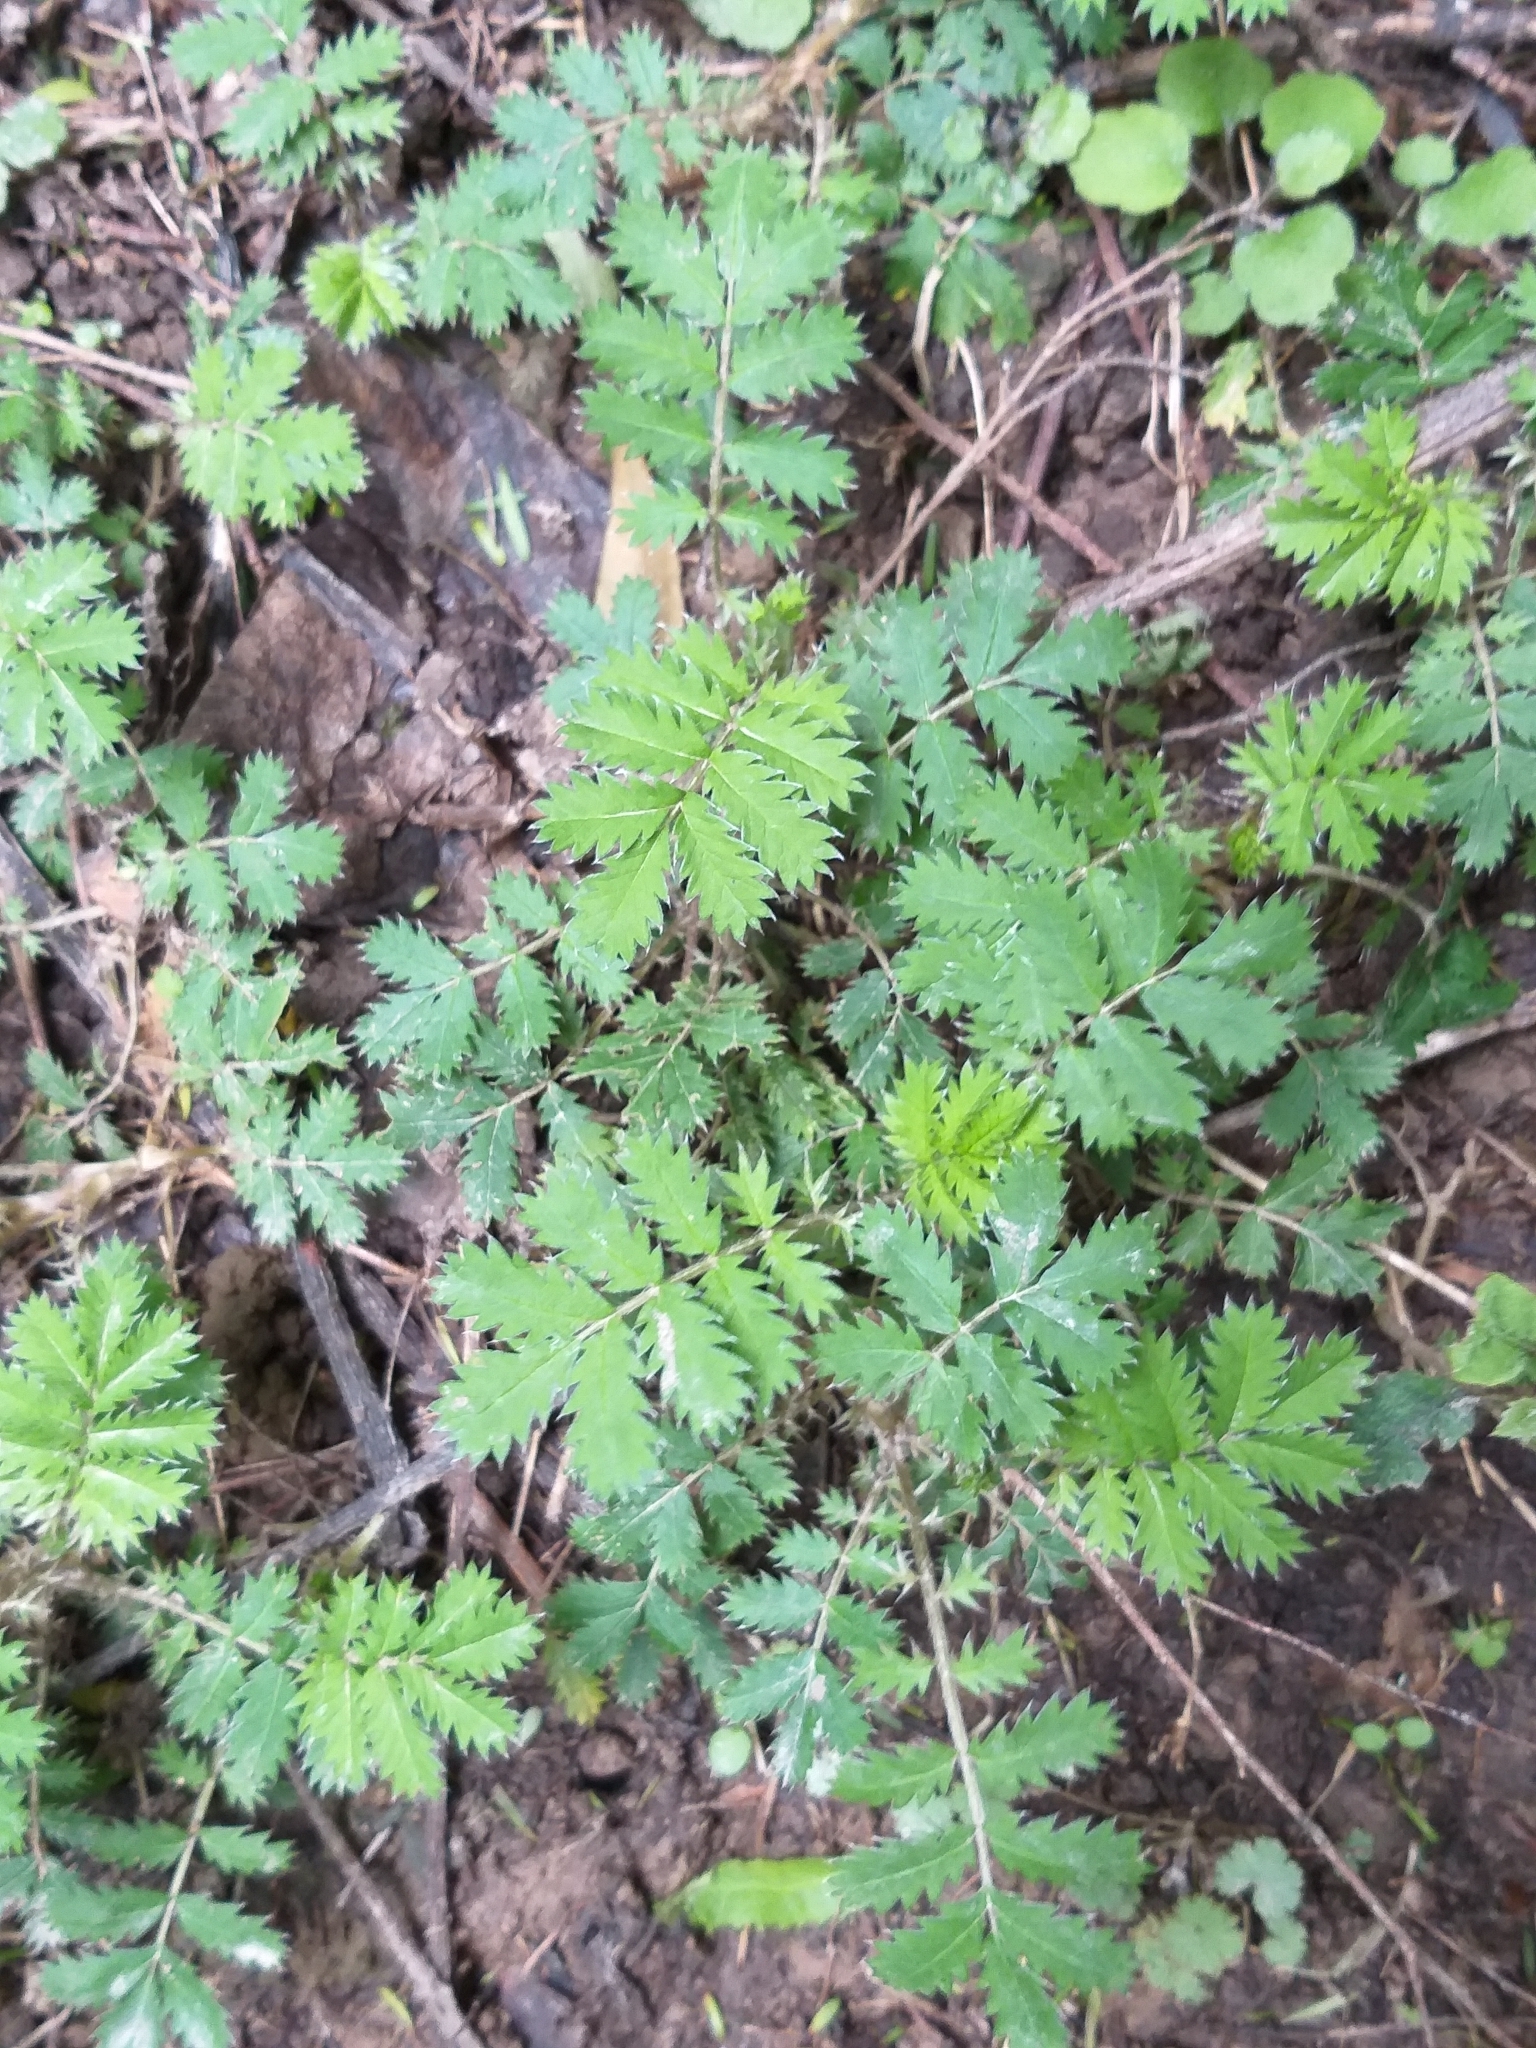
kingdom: Plantae
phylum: Tracheophyta
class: Magnoliopsida
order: Rosales
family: Rosaceae
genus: Acaena
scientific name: Acaena anserinifolia
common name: Bronze pirri-pirri-bur
